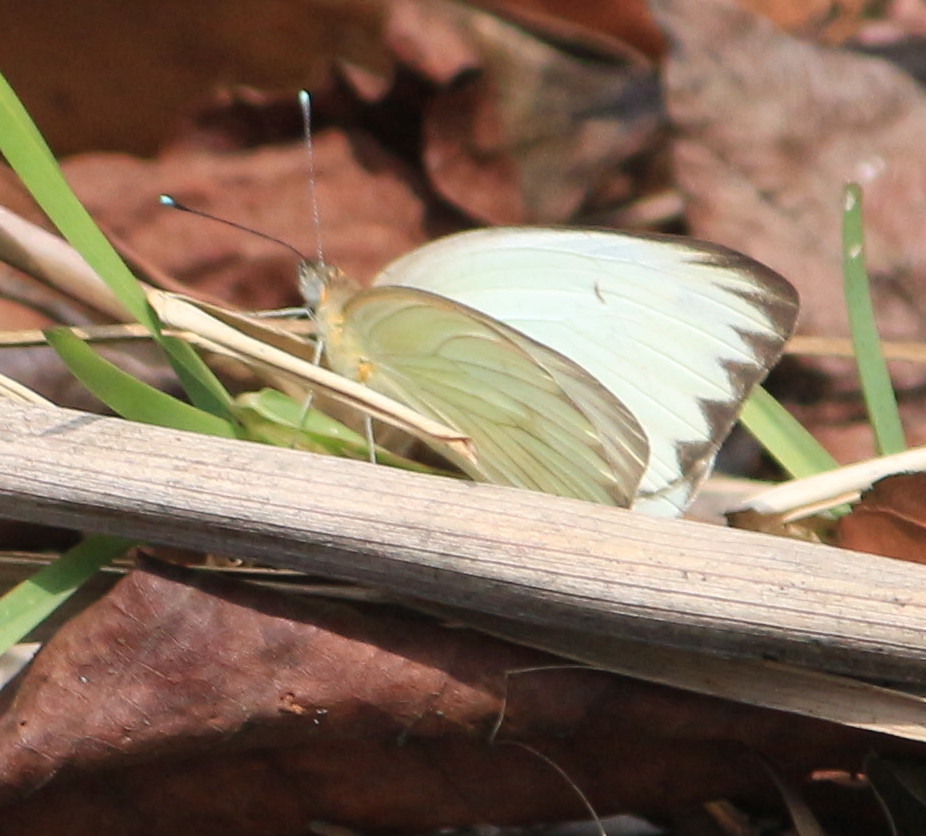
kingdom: Animalia
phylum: Arthropoda
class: Insecta
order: Lepidoptera
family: Pieridae
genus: Ascia
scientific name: Ascia monuste
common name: Great southern white
